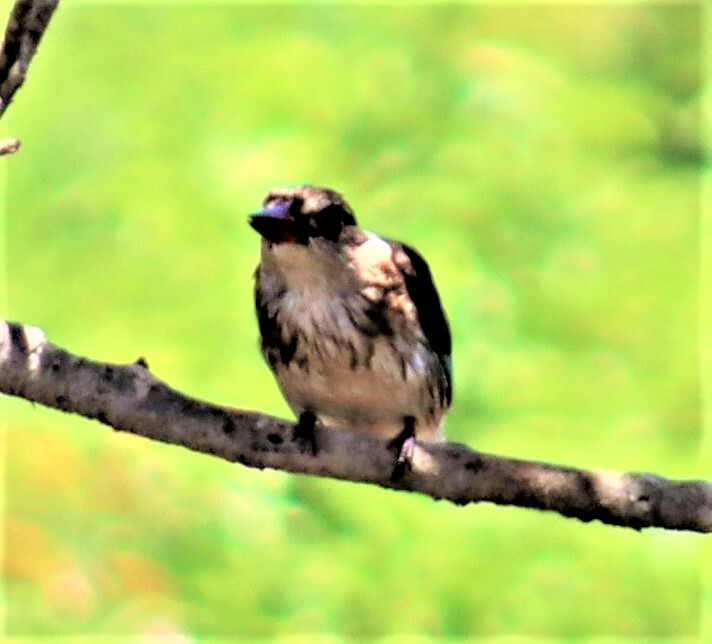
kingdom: Animalia
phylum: Chordata
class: Aves
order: Coraciiformes
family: Alcedinidae
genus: Halcyon
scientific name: Halcyon albiventris
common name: Brown-hooded kingfisher
